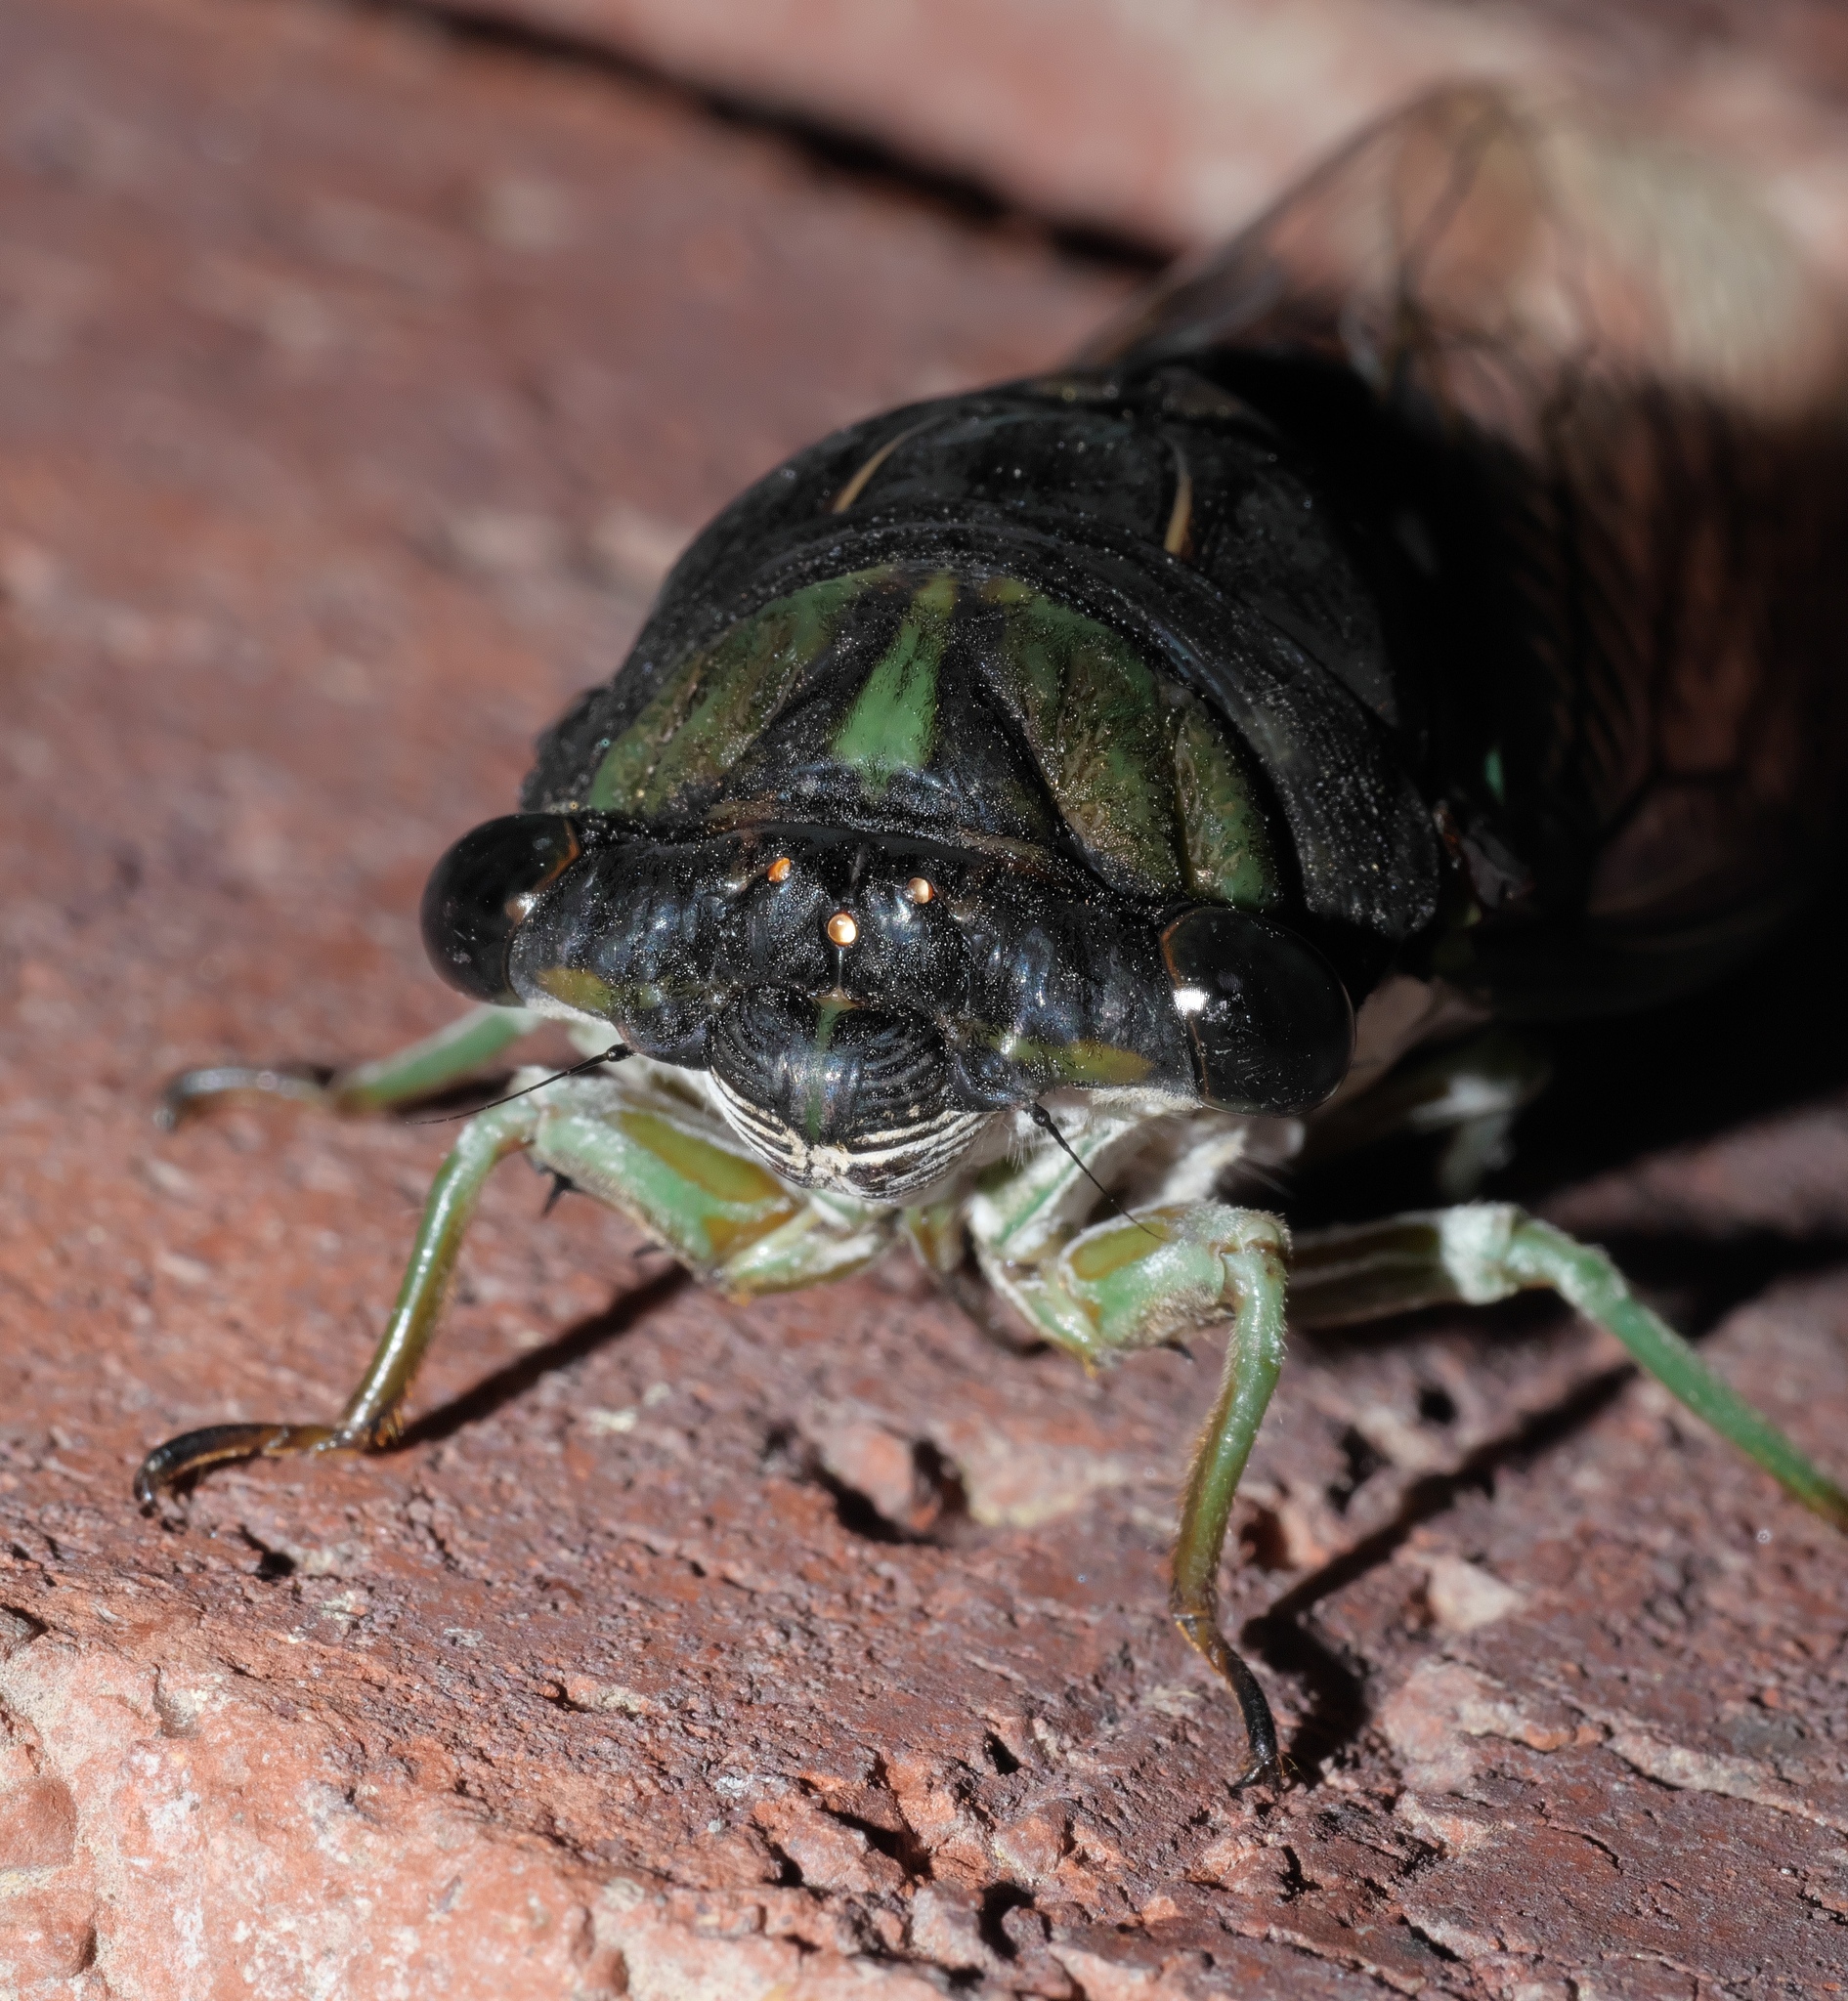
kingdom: Animalia
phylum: Arthropoda
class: Insecta
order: Hemiptera
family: Cicadidae
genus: Neotibicen
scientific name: Neotibicen tibicen
